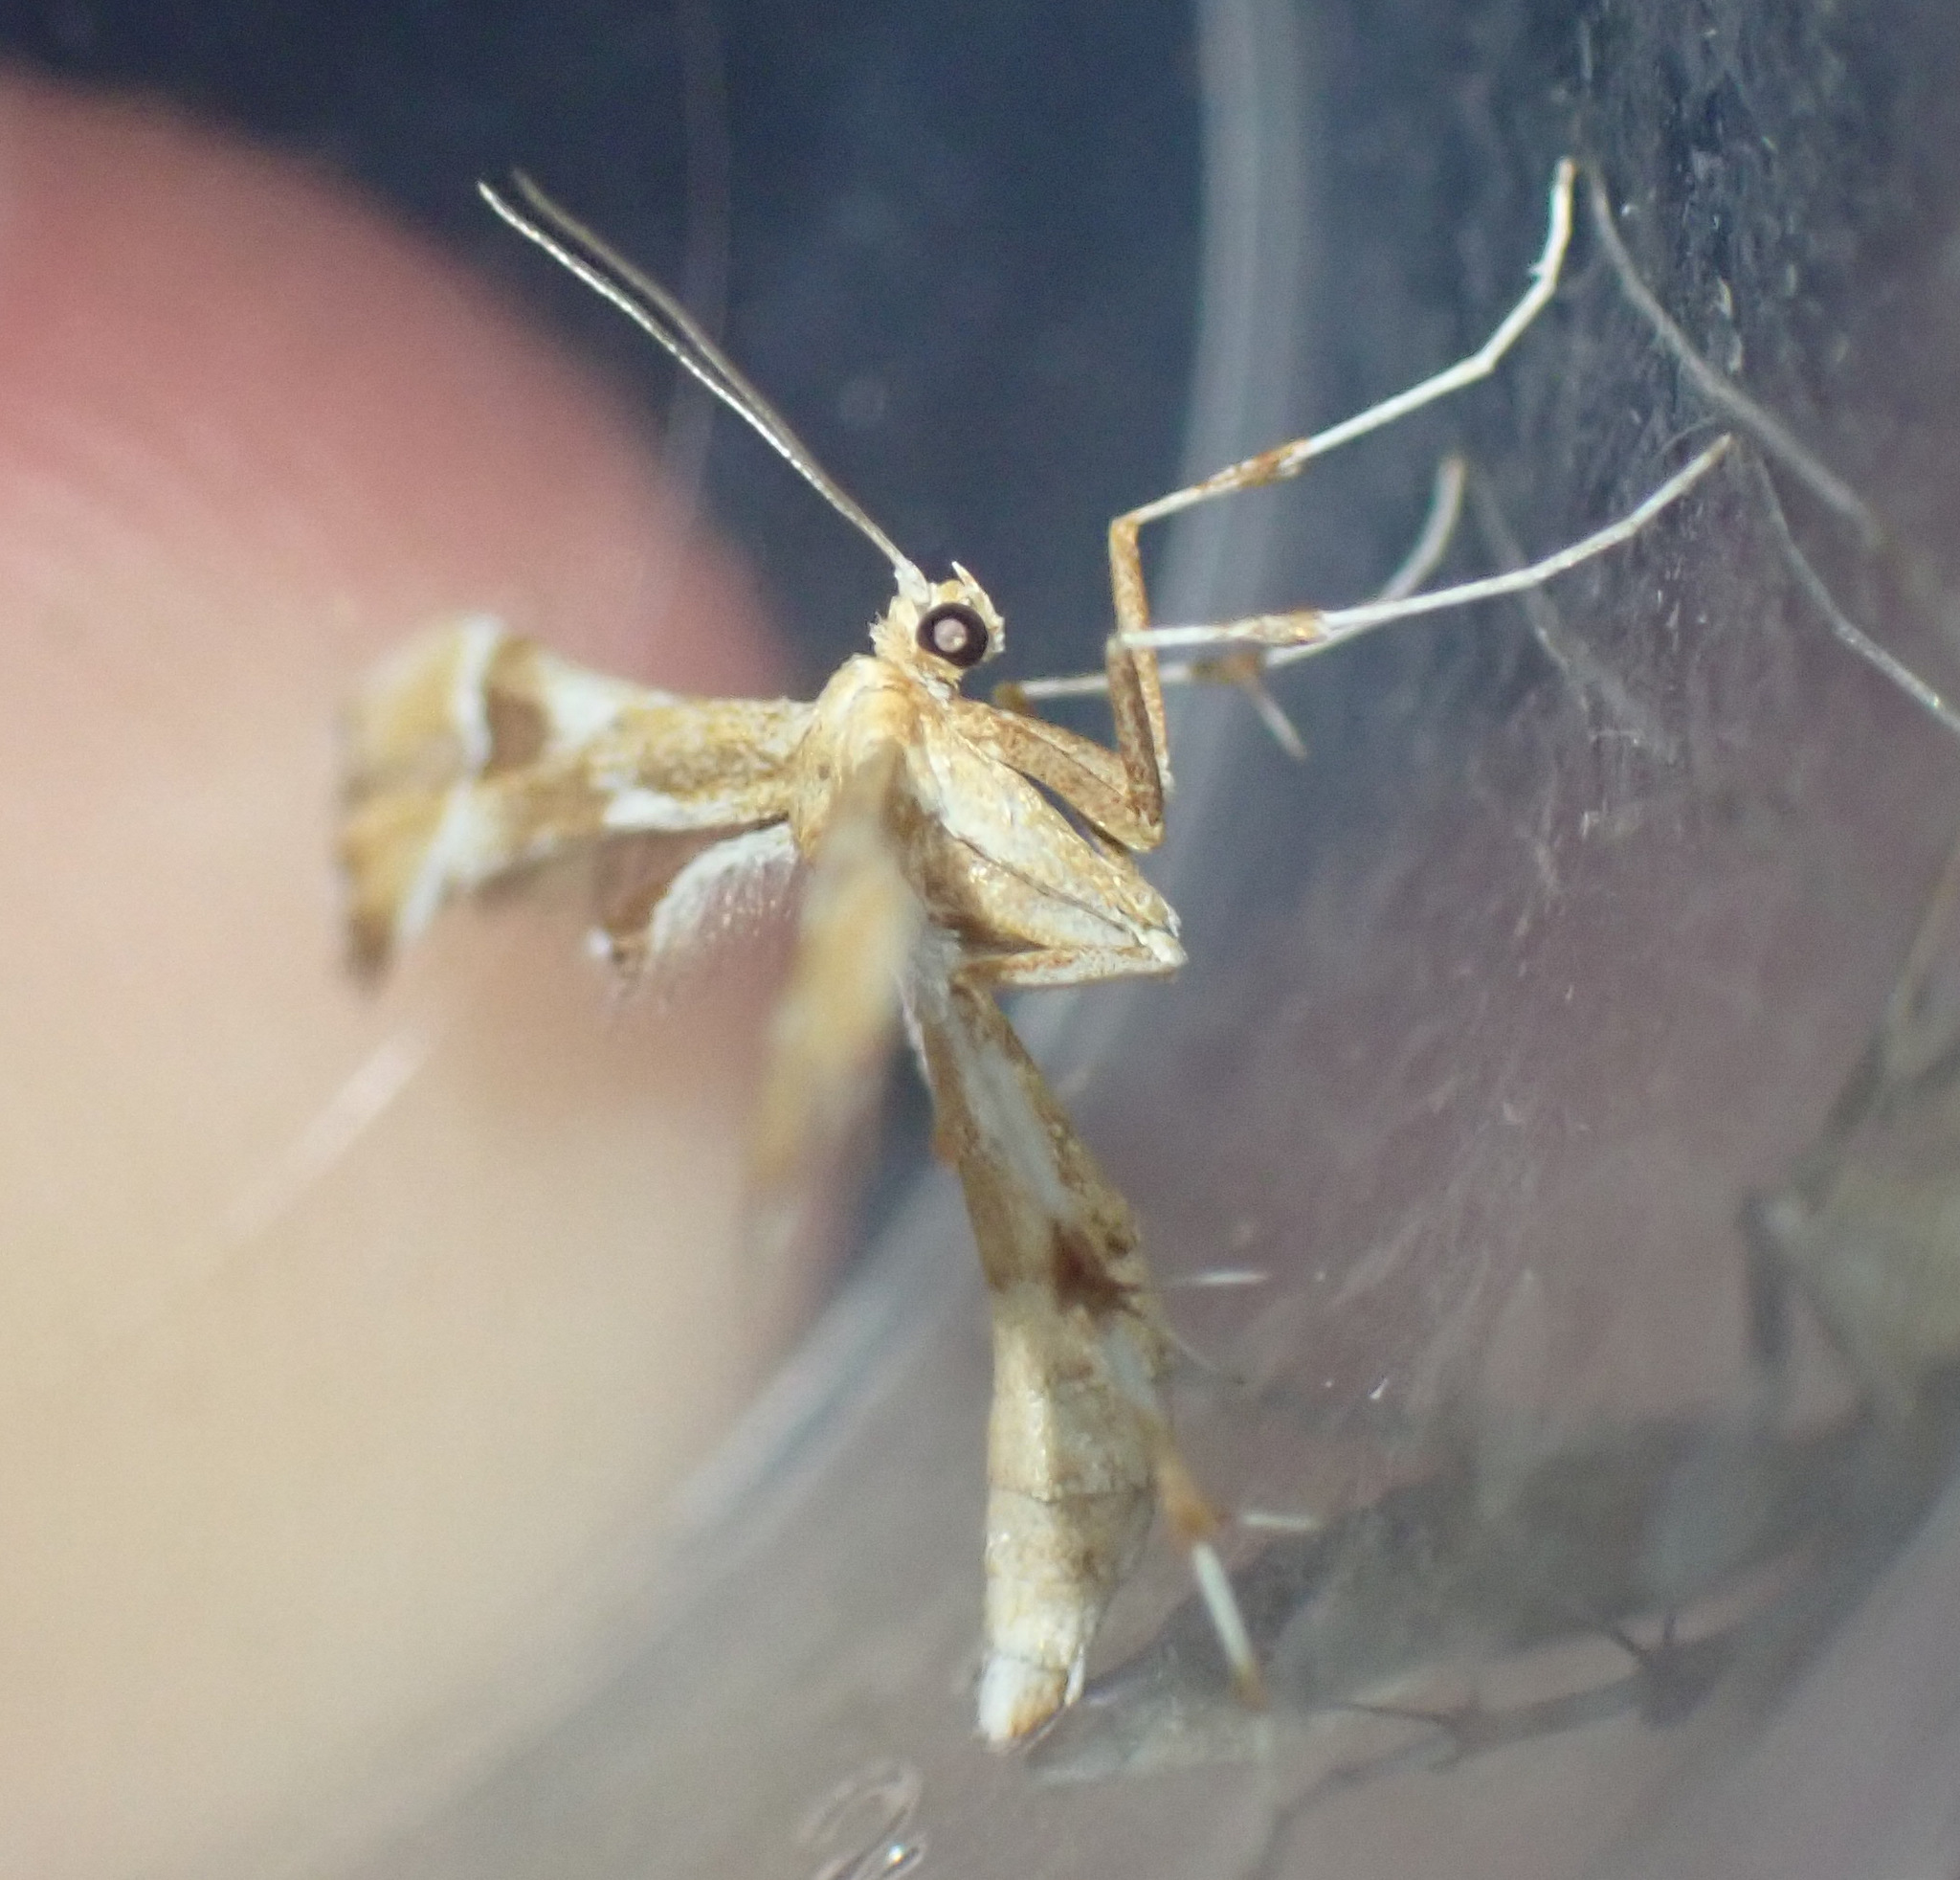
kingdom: Animalia
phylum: Arthropoda
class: Insecta
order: Lepidoptera
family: Pterophoridae
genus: Cnaemidophorus
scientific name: Cnaemidophorus rhododactyla
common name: Rose plume
